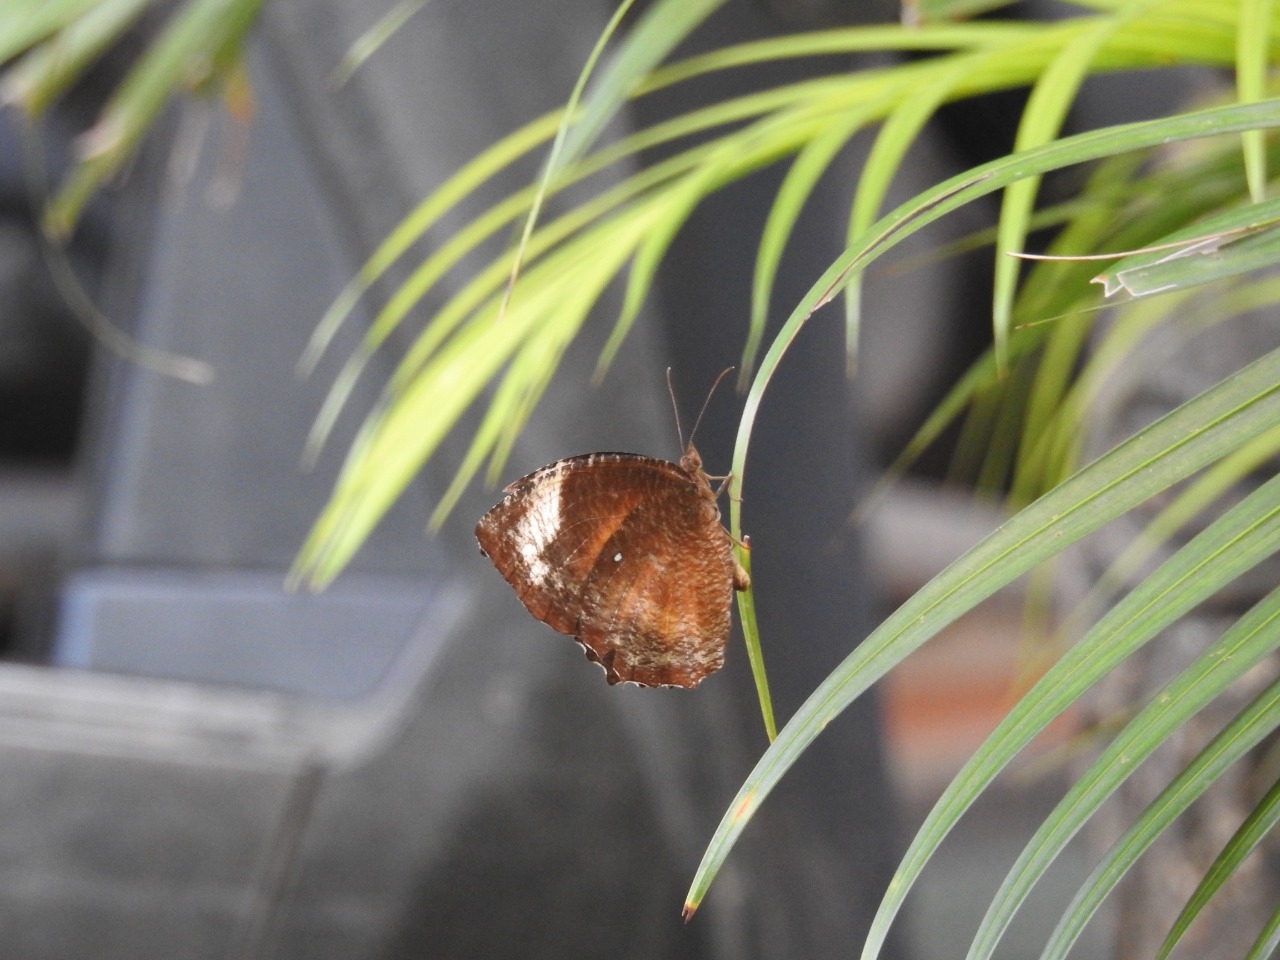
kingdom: Animalia
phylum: Arthropoda
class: Insecta
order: Lepidoptera
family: Nymphalidae
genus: Elymnias
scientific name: Elymnias hypermnestra
